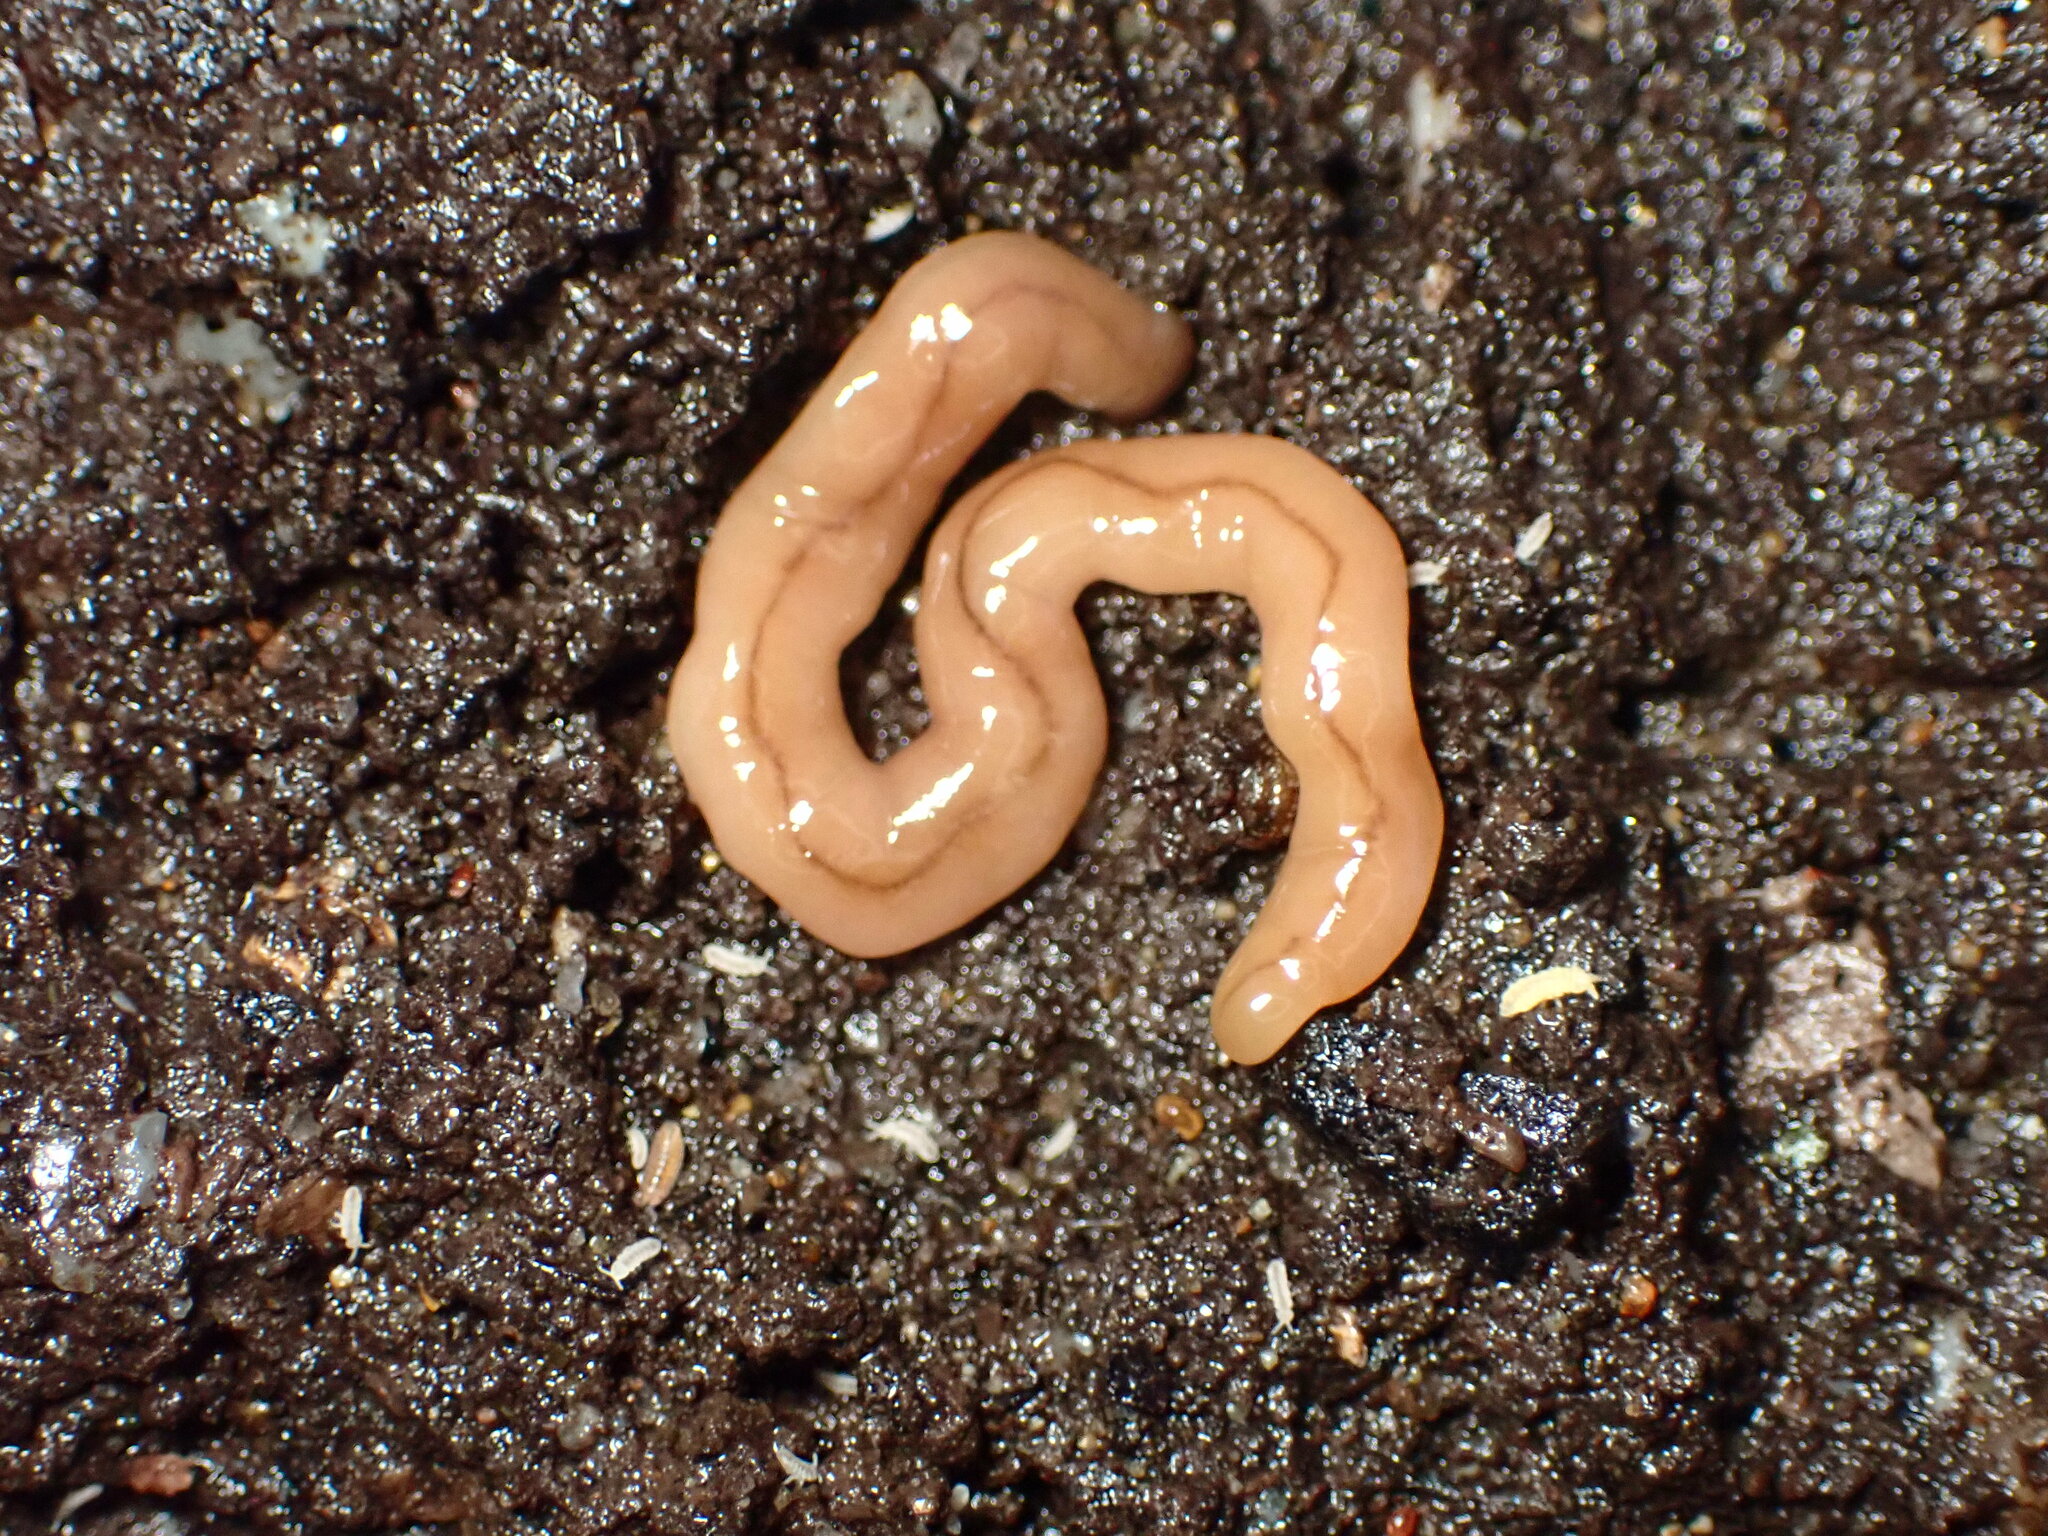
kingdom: Animalia
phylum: Platyhelminthes
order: Tricladida
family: Geoplanidae
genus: Bipalium
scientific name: Bipalium adventitium
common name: Land planarian
